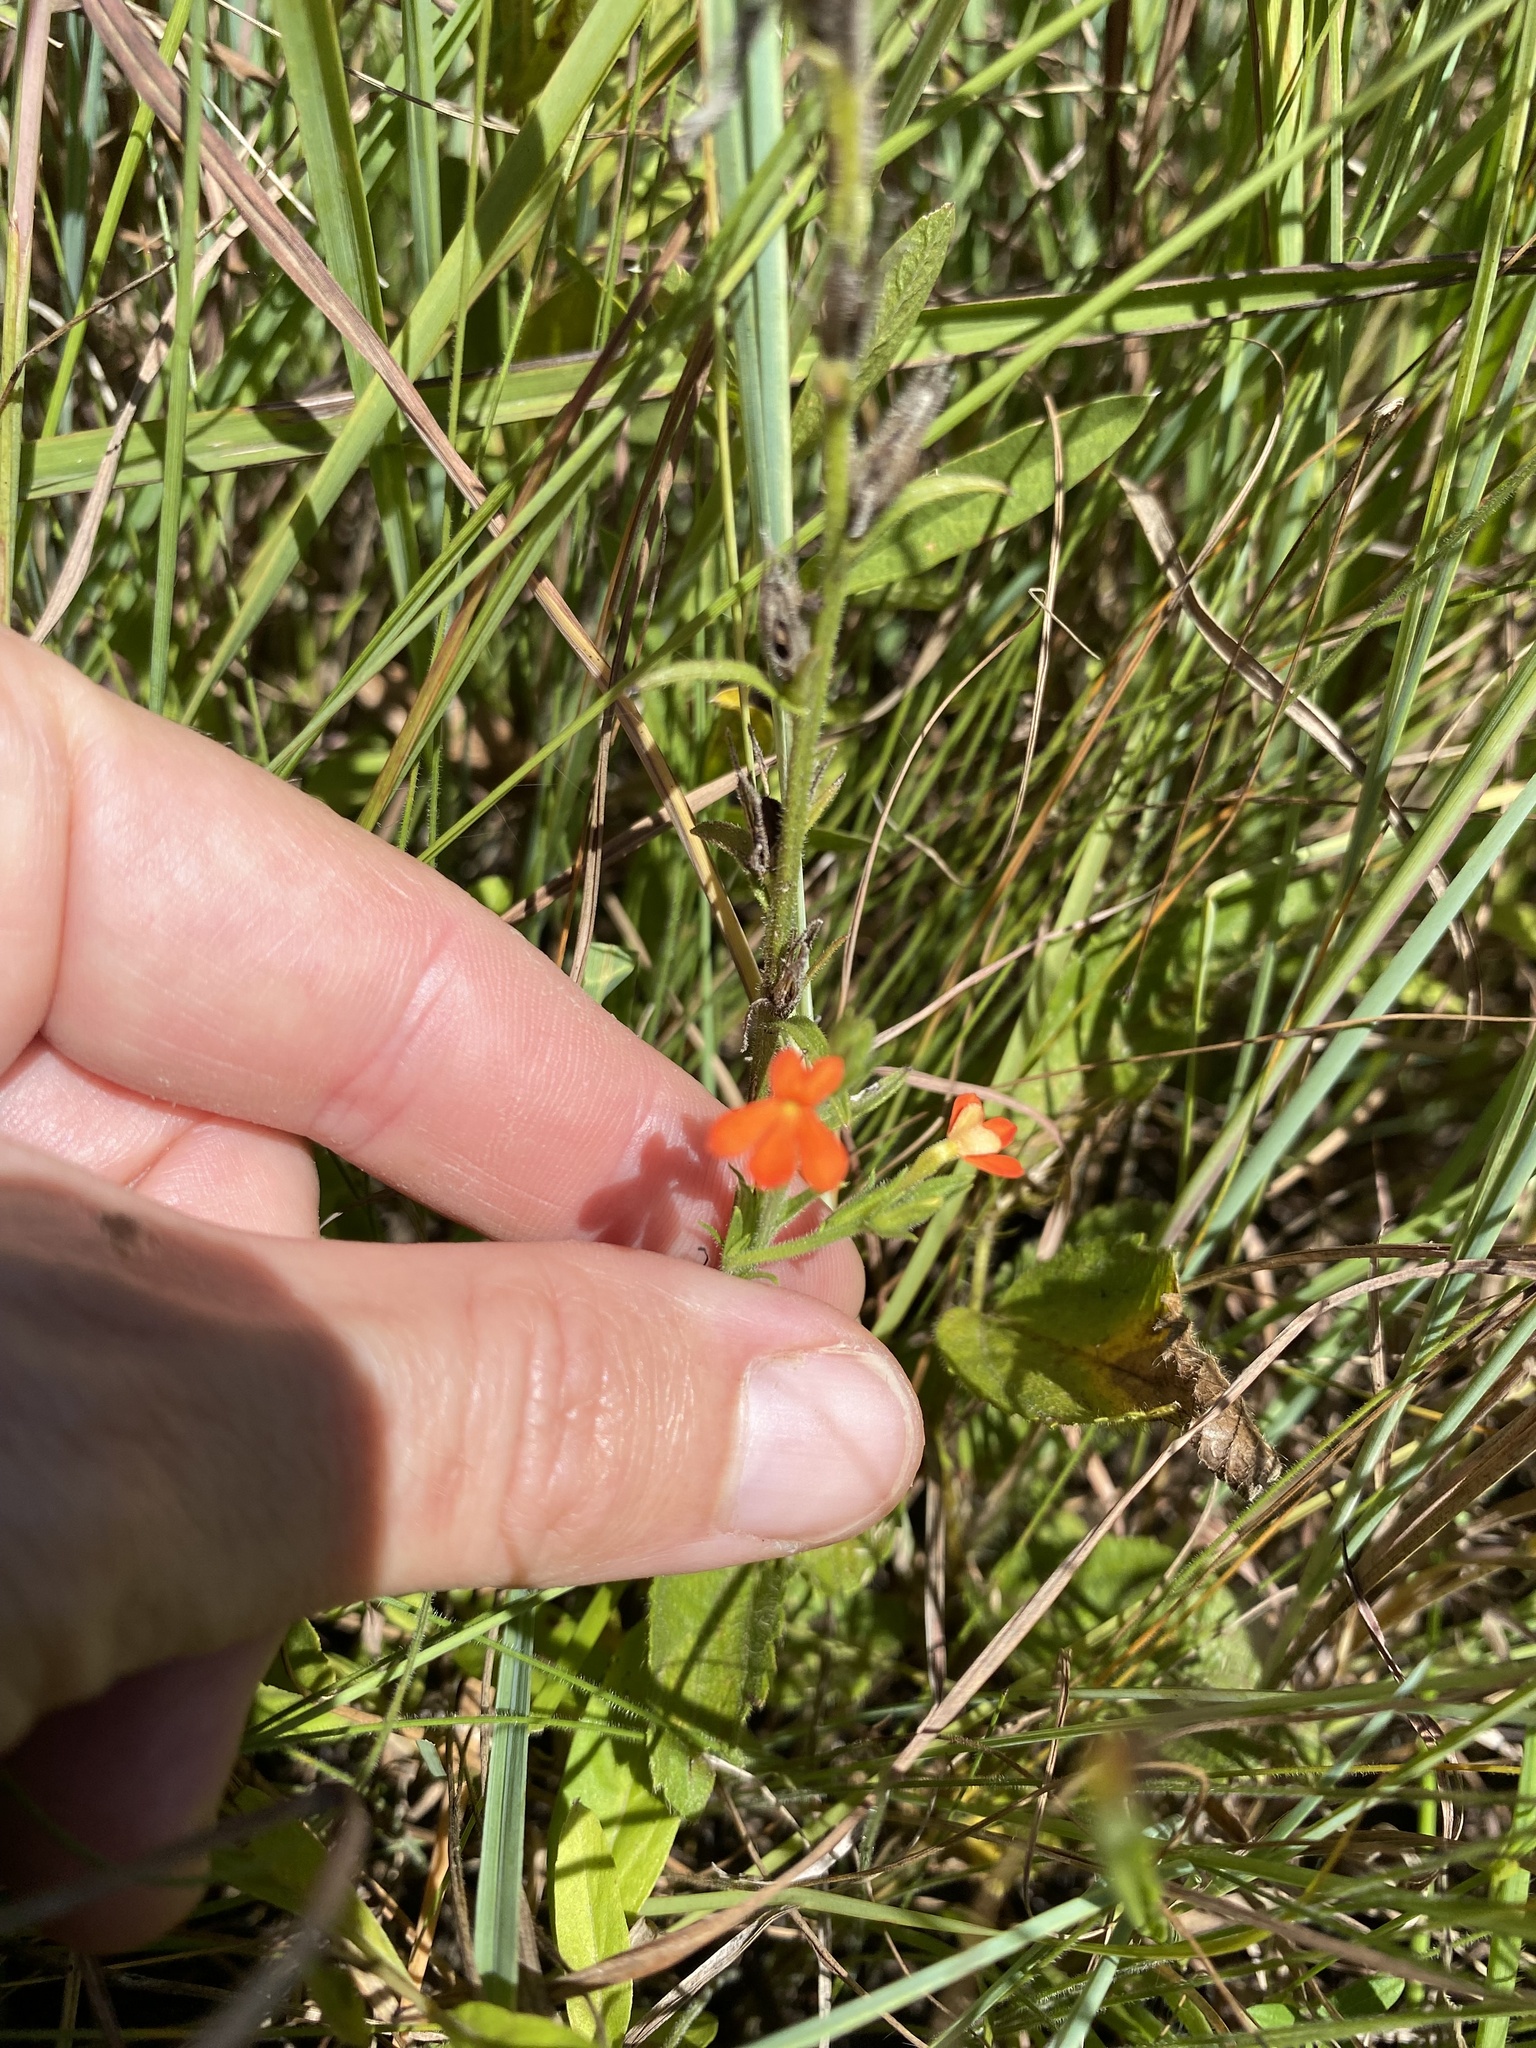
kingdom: Plantae
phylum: Tracheophyta
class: Magnoliopsida
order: Lamiales
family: Orobanchaceae
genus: Striga
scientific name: Striga elegans
